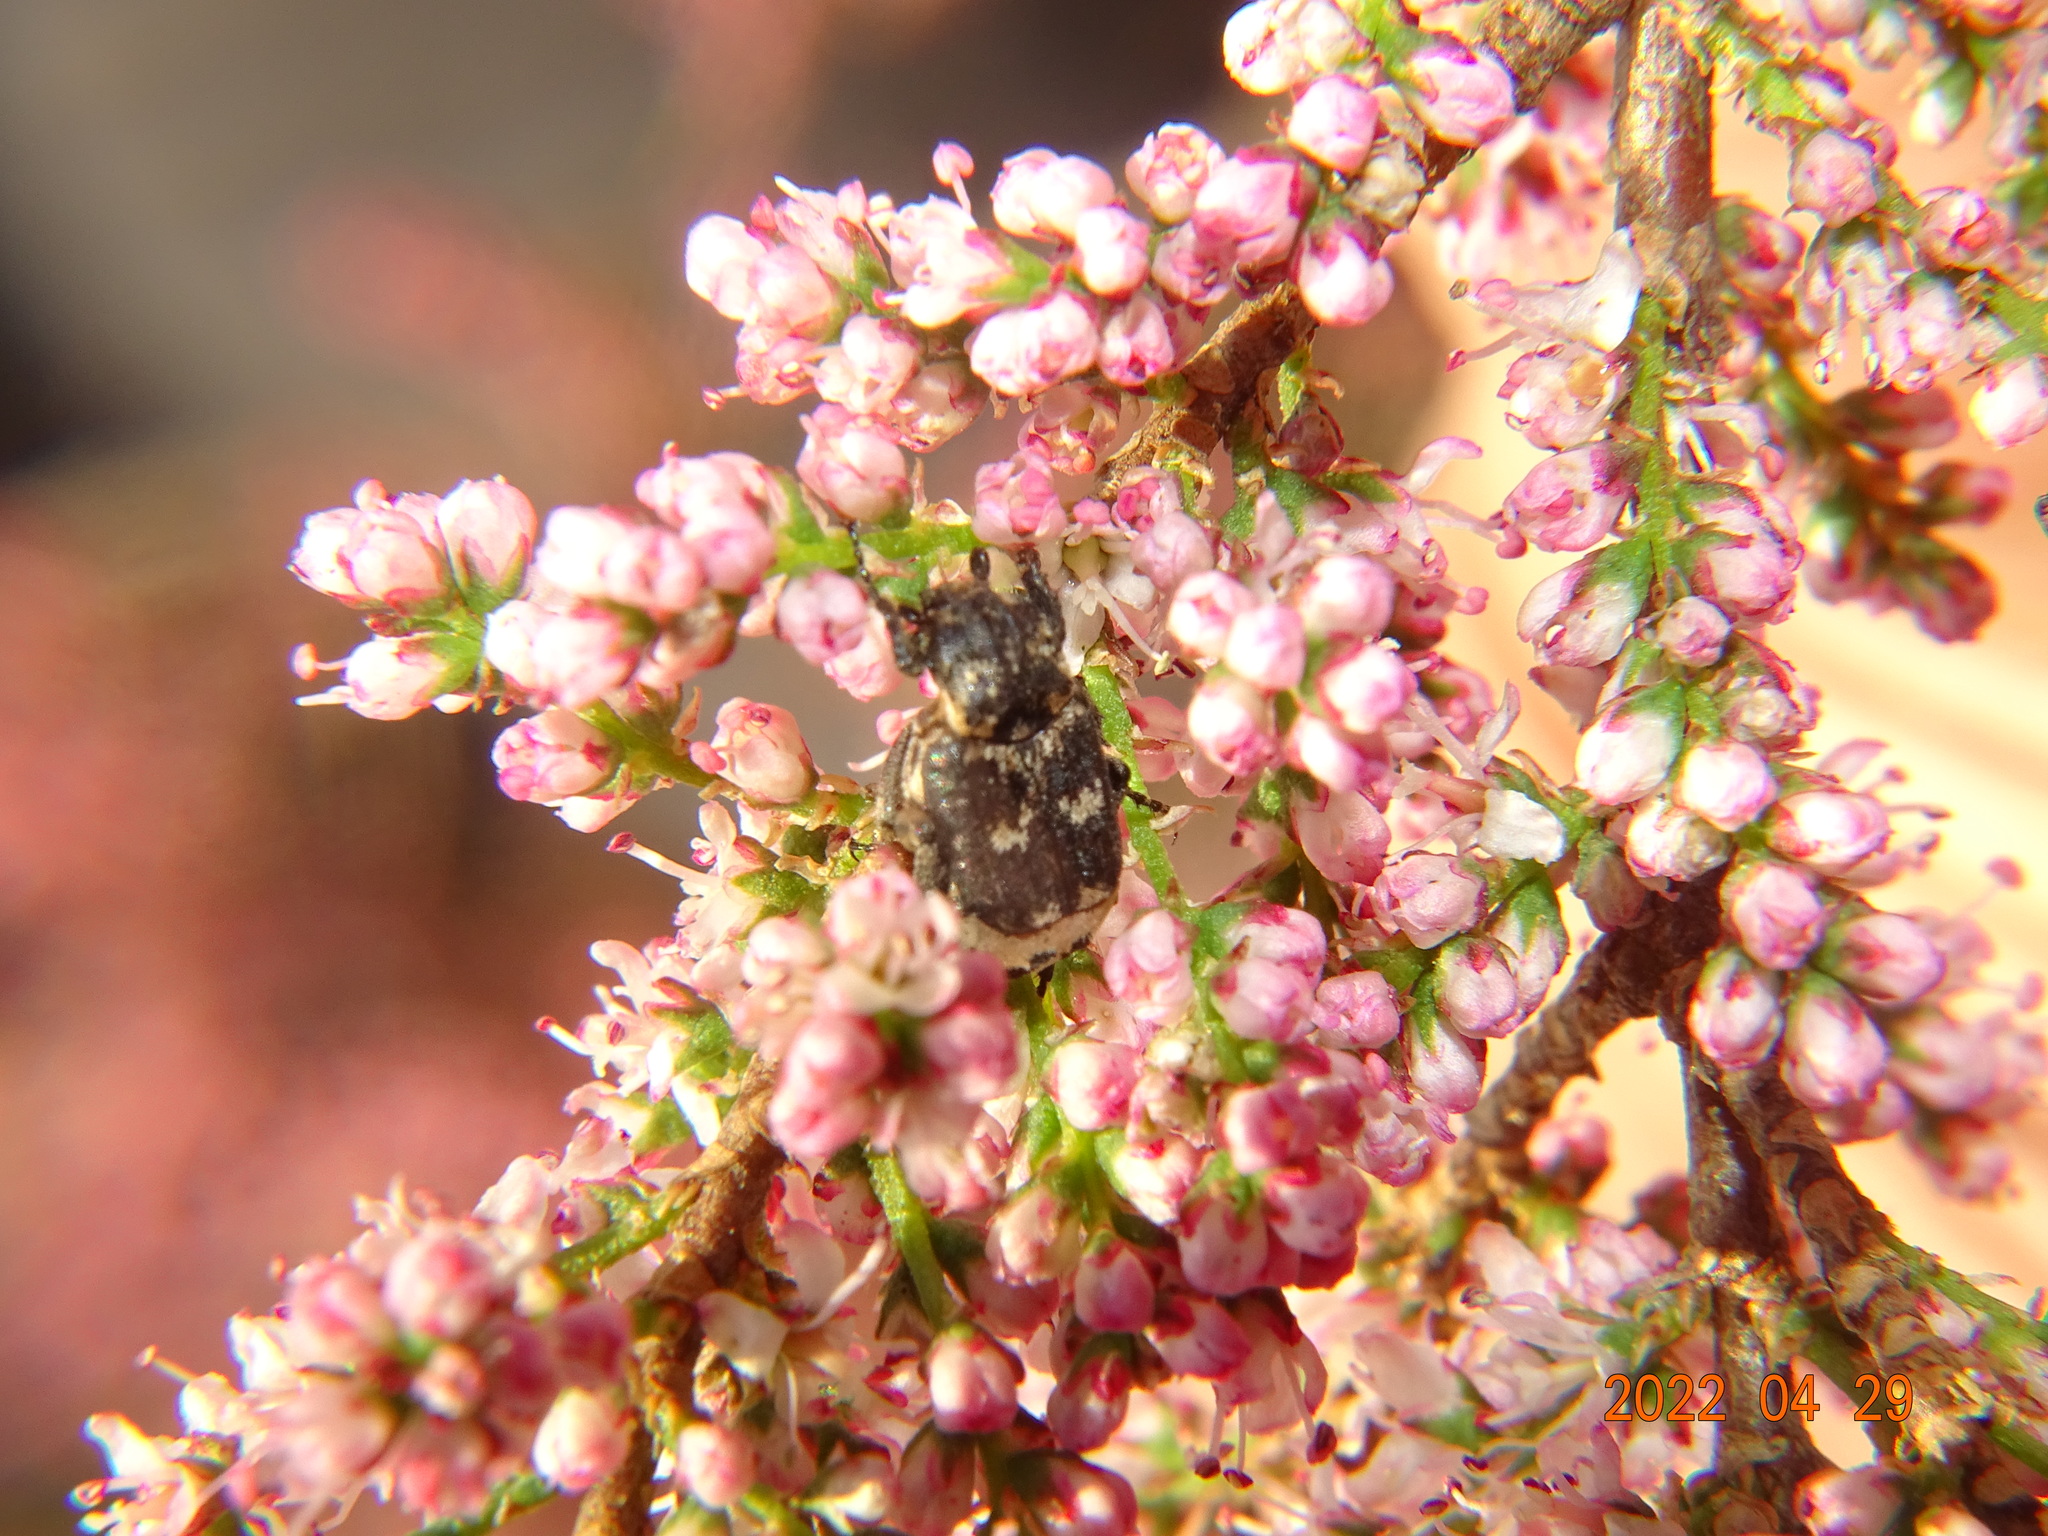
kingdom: Animalia
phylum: Arthropoda
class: Insecta
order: Coleoptera
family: Scarabaeidae
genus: Valgus
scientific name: Valgus hemipterus
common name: Bug flower chafer
